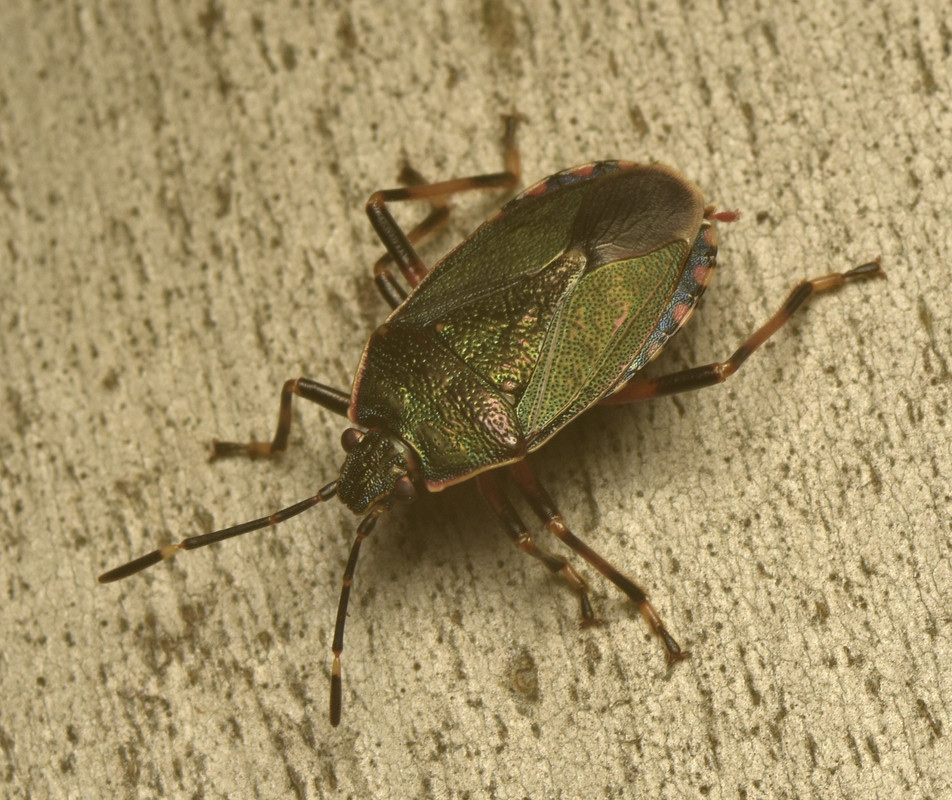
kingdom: Animalia
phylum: Arthropoda
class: Insecta
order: Hemiptera
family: Pentatomidae
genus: Notius
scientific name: Notius
